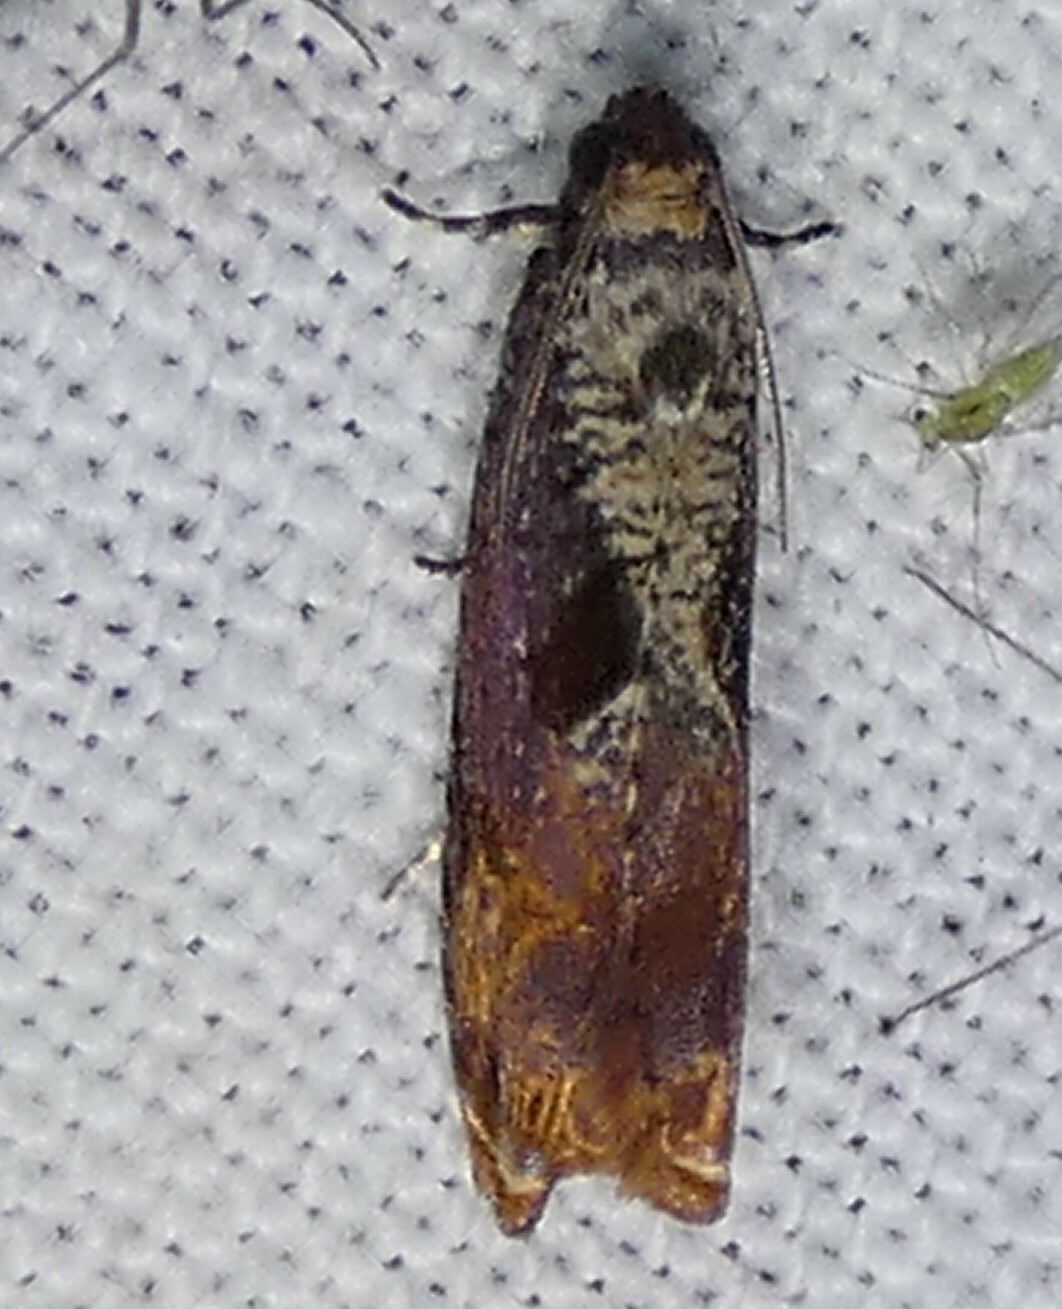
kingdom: Animalia
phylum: Arthropoda
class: Insecta
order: Lepidoptera
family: Tortricidae
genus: Episimus
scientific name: Episimus tyrius
